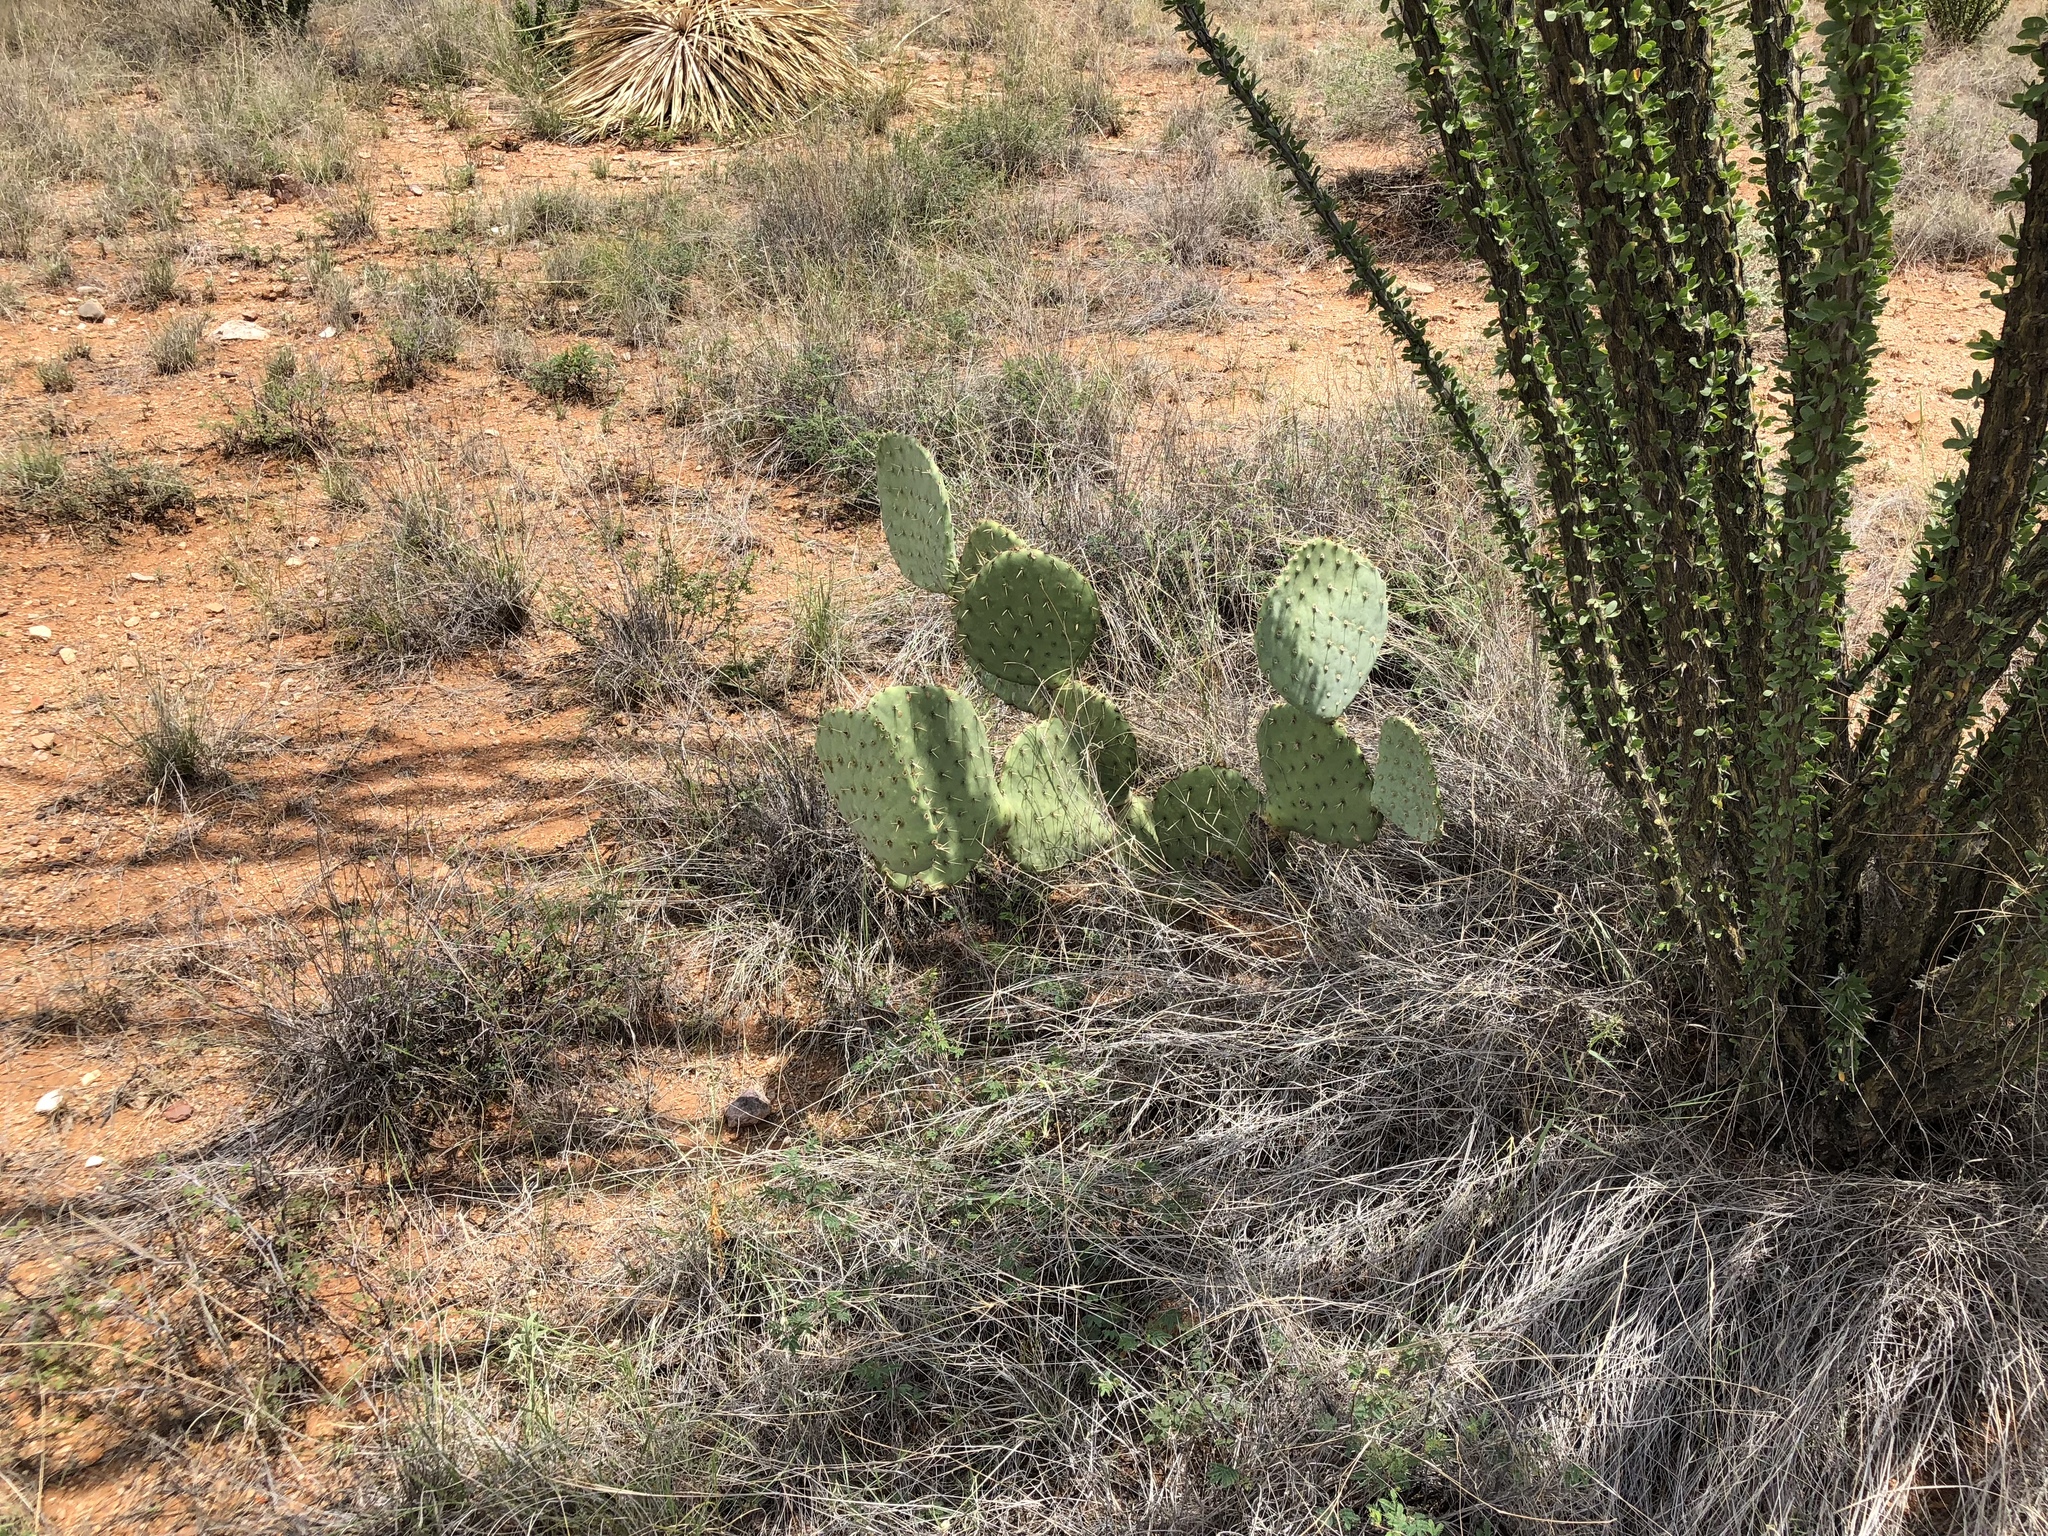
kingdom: Plantae
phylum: Tracheophyta
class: Magnoliopsida
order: Caryophyllales
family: Cactaceae
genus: Opuntia
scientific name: Opuntia chlorotica
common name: Dollar-joint prickly-pear
